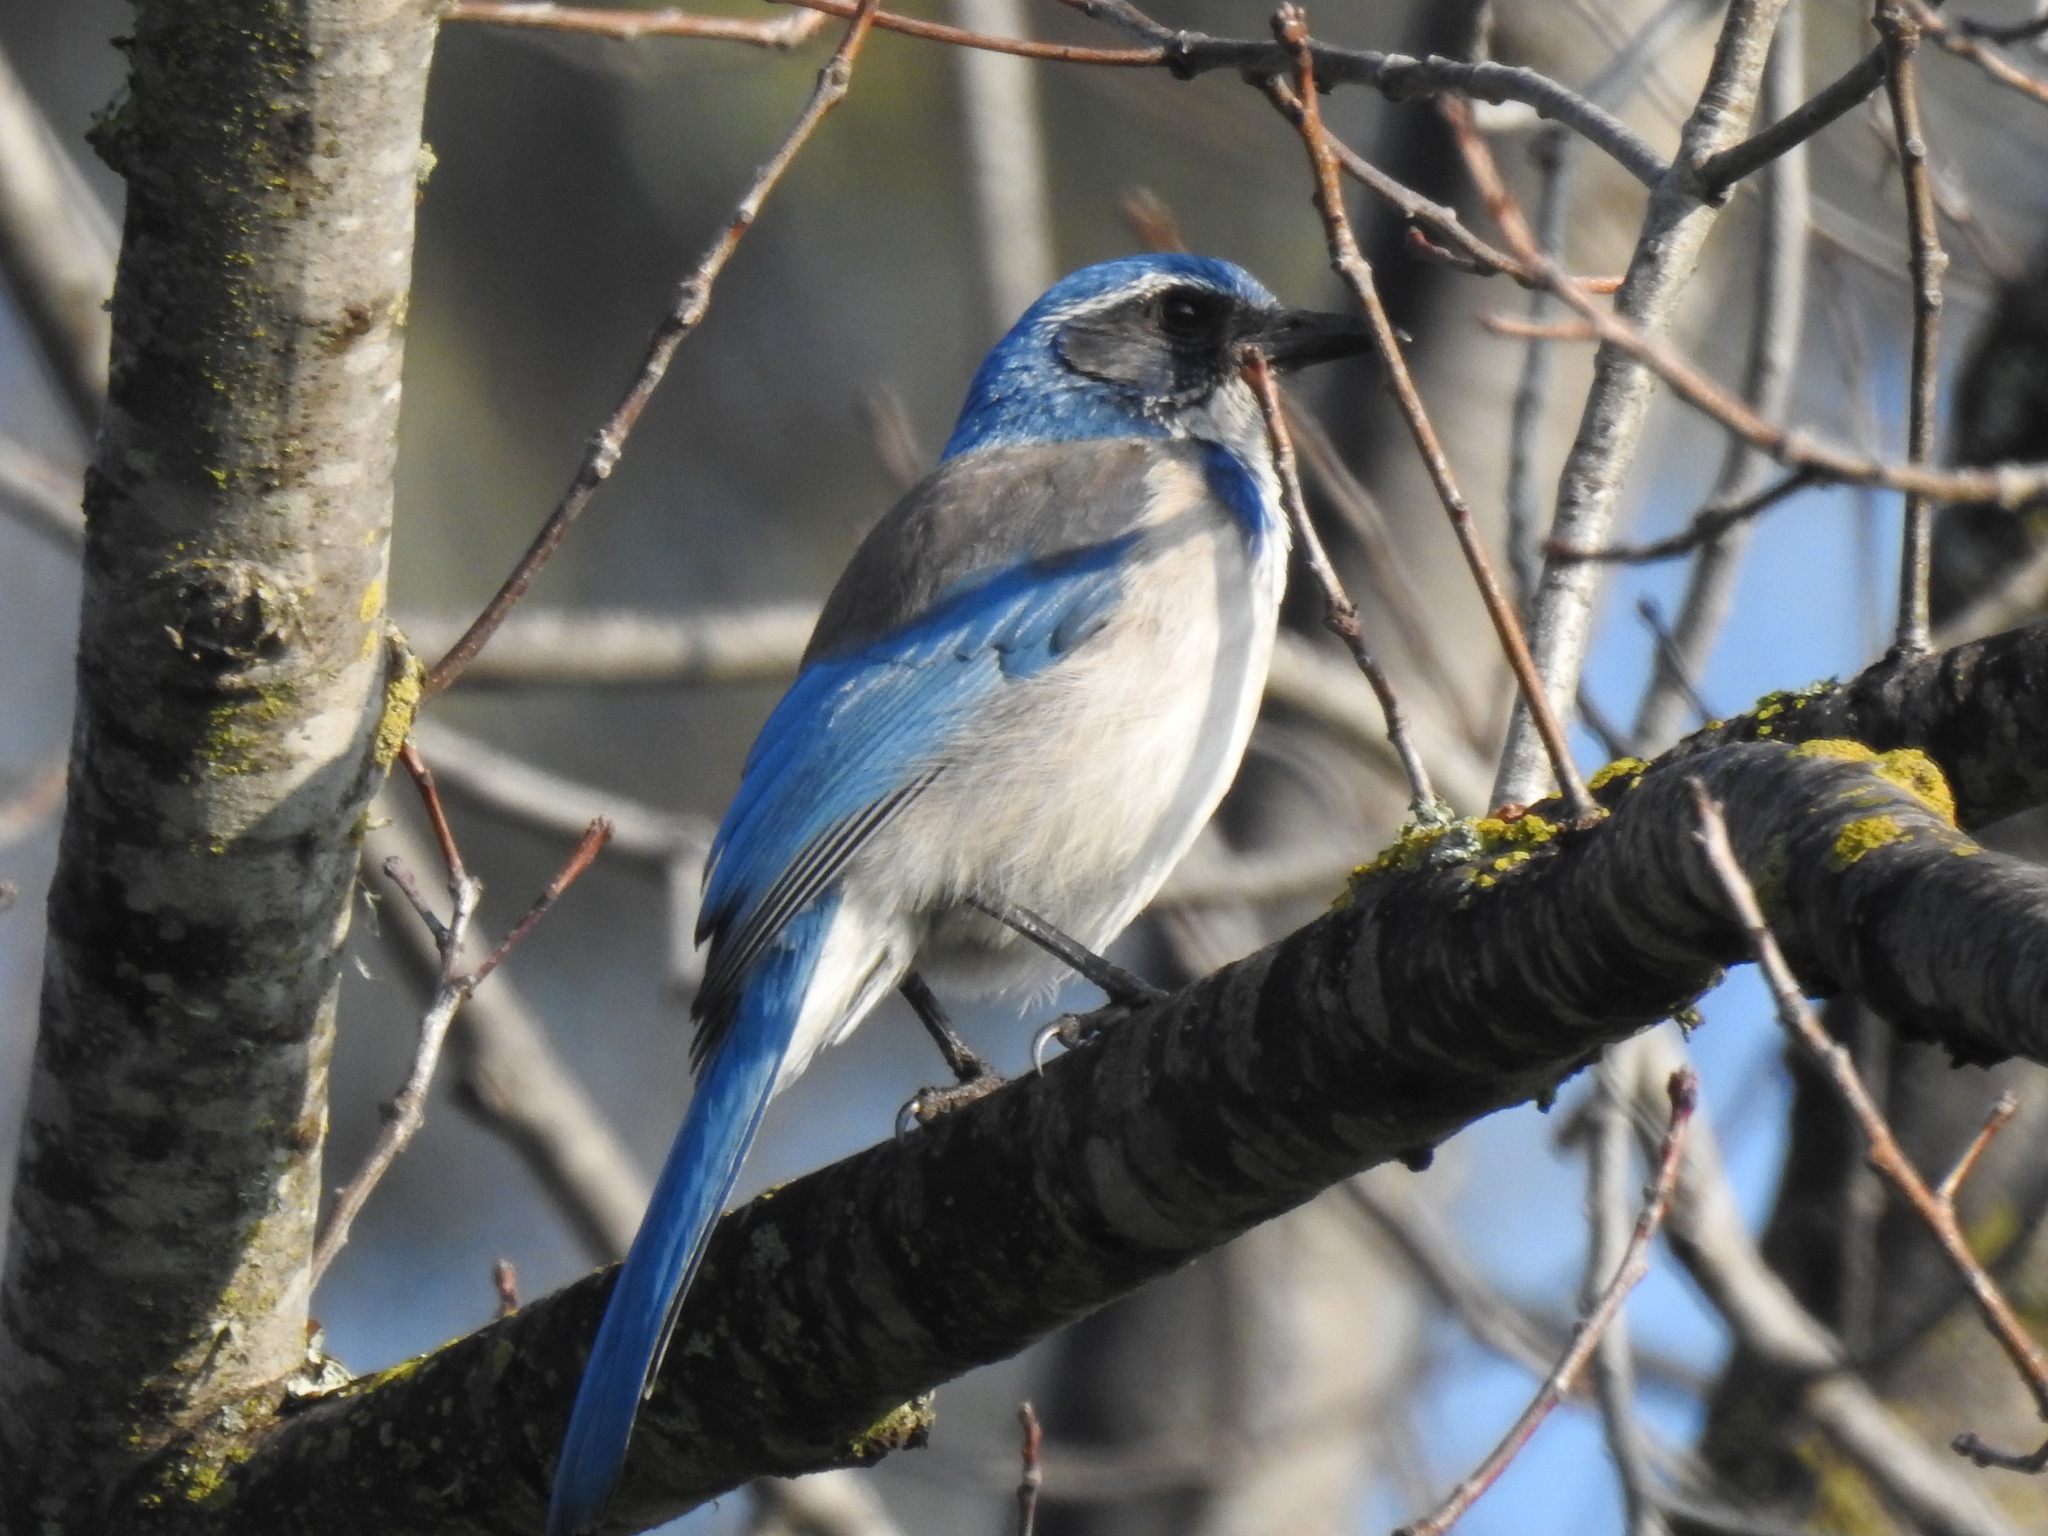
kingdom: Animalia
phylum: Chordata
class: Aves
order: Passeriformes
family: Corvidae
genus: Aphelocoma
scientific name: Aphelocoma californica
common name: California scrub-jay
